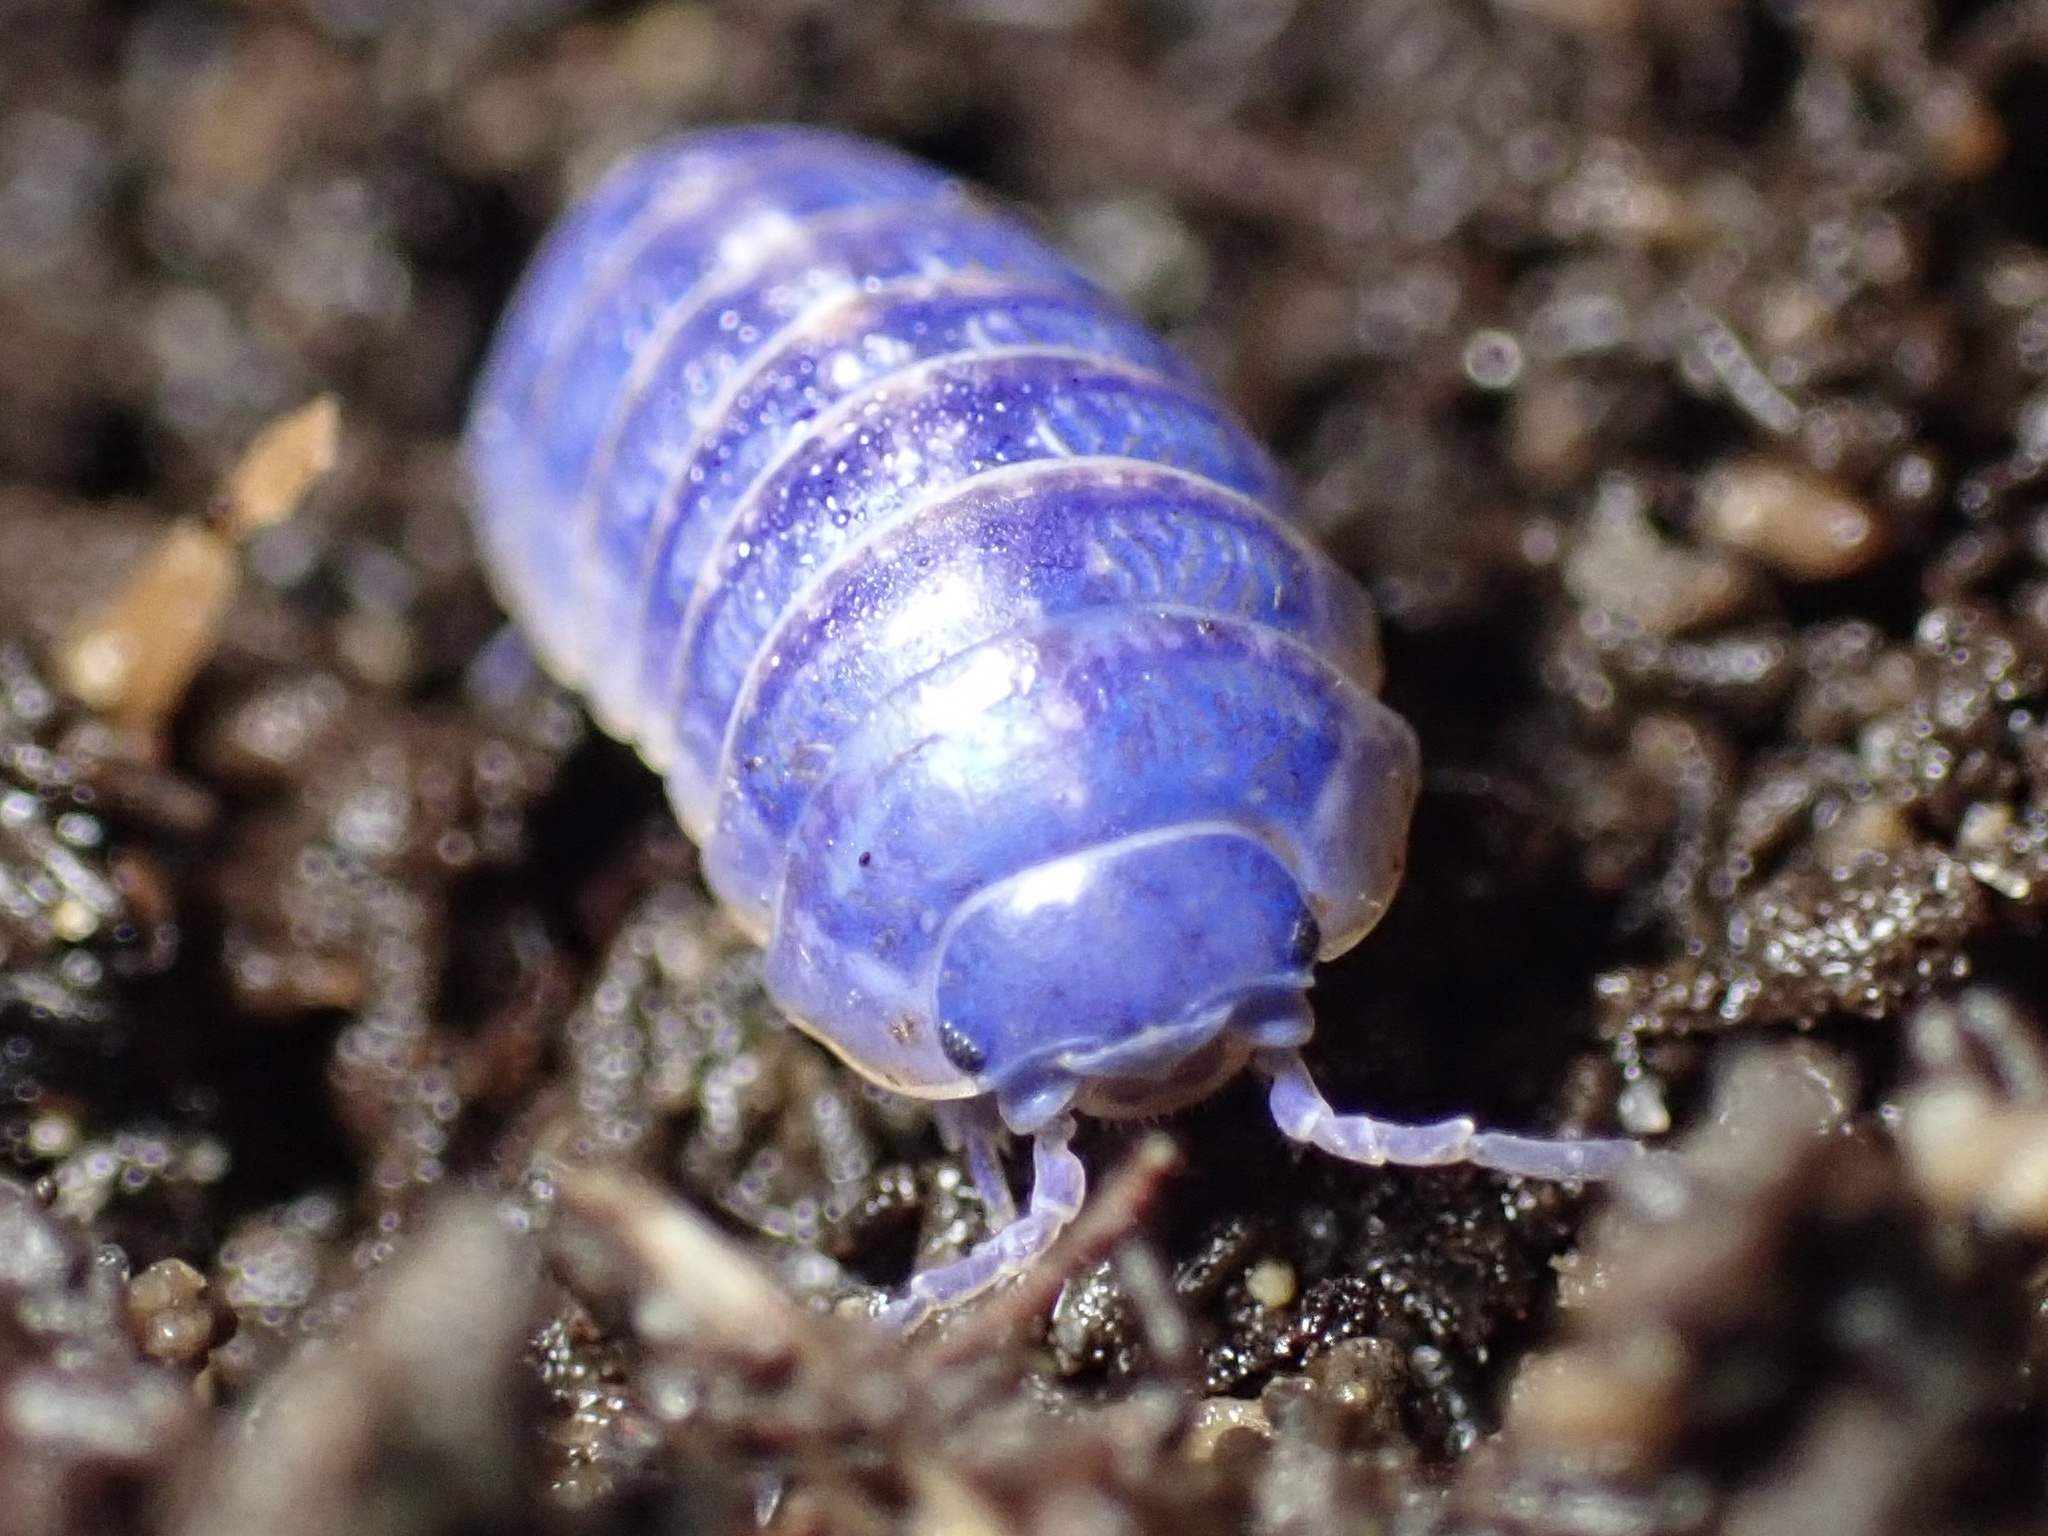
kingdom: Viruses
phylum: Nucleocytoviricota
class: Megaviricetes
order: Pimascovirales
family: Iridoviridae
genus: Iridovirus
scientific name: Iridovirus Invertebrate iridescent virus 31
